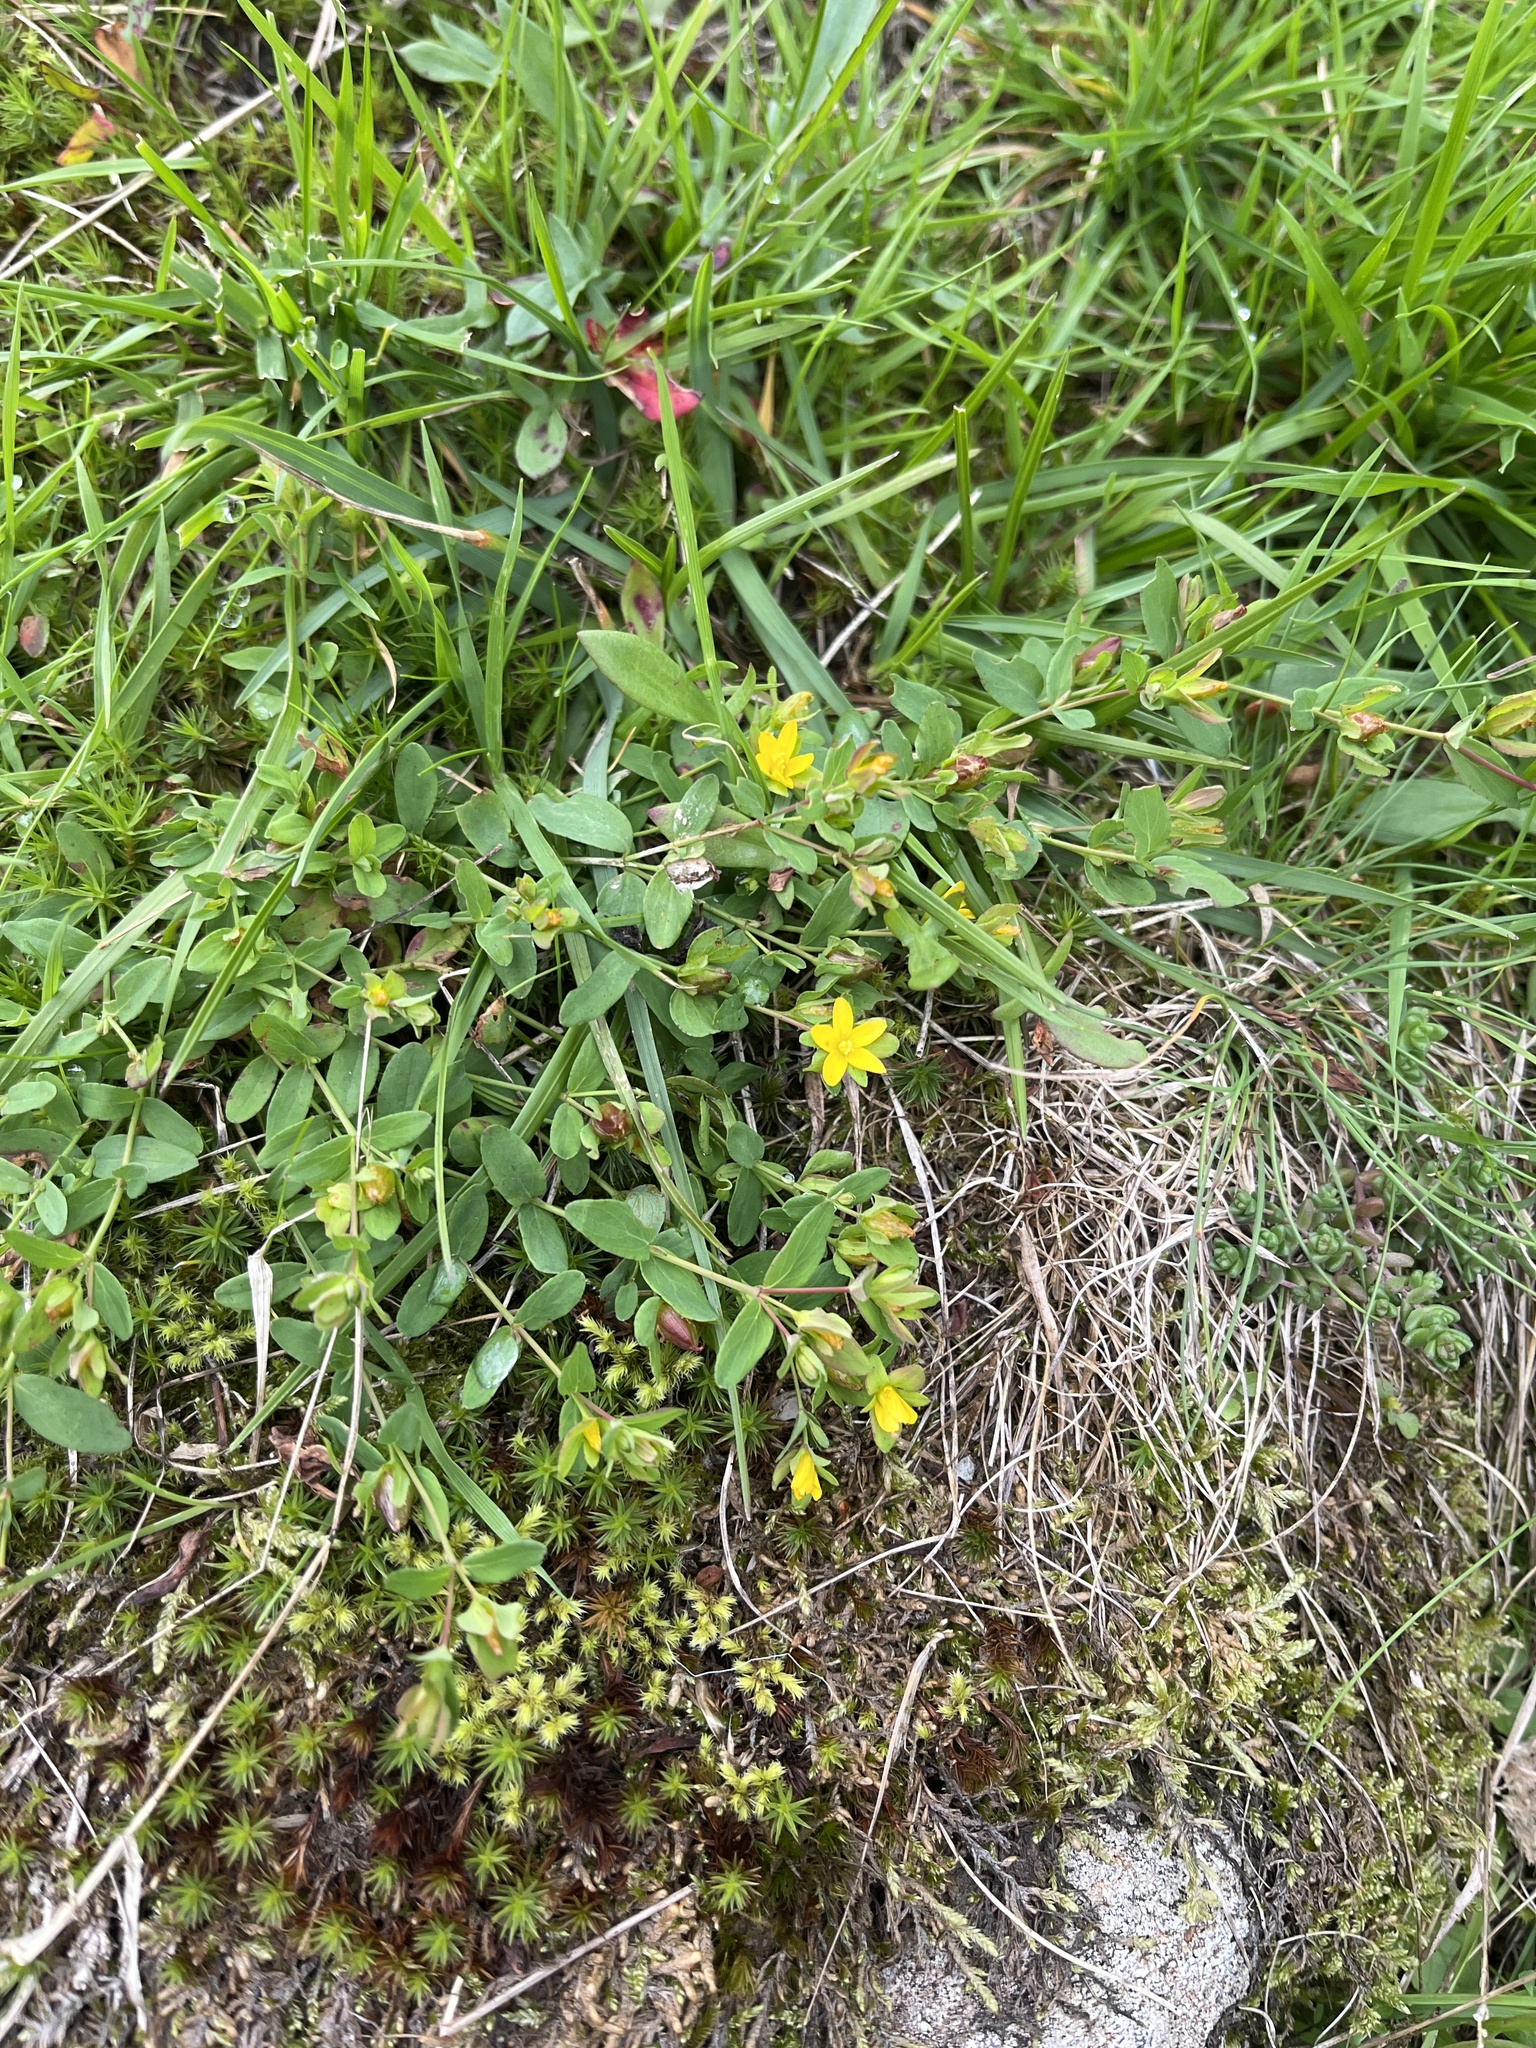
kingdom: Plantae
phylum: Tracheophyta
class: Magnoliopsida
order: Malpighiales
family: Hypericaceae
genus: Hypericum
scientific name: Hypericum humifusum
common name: Trailing st. john's-wort
